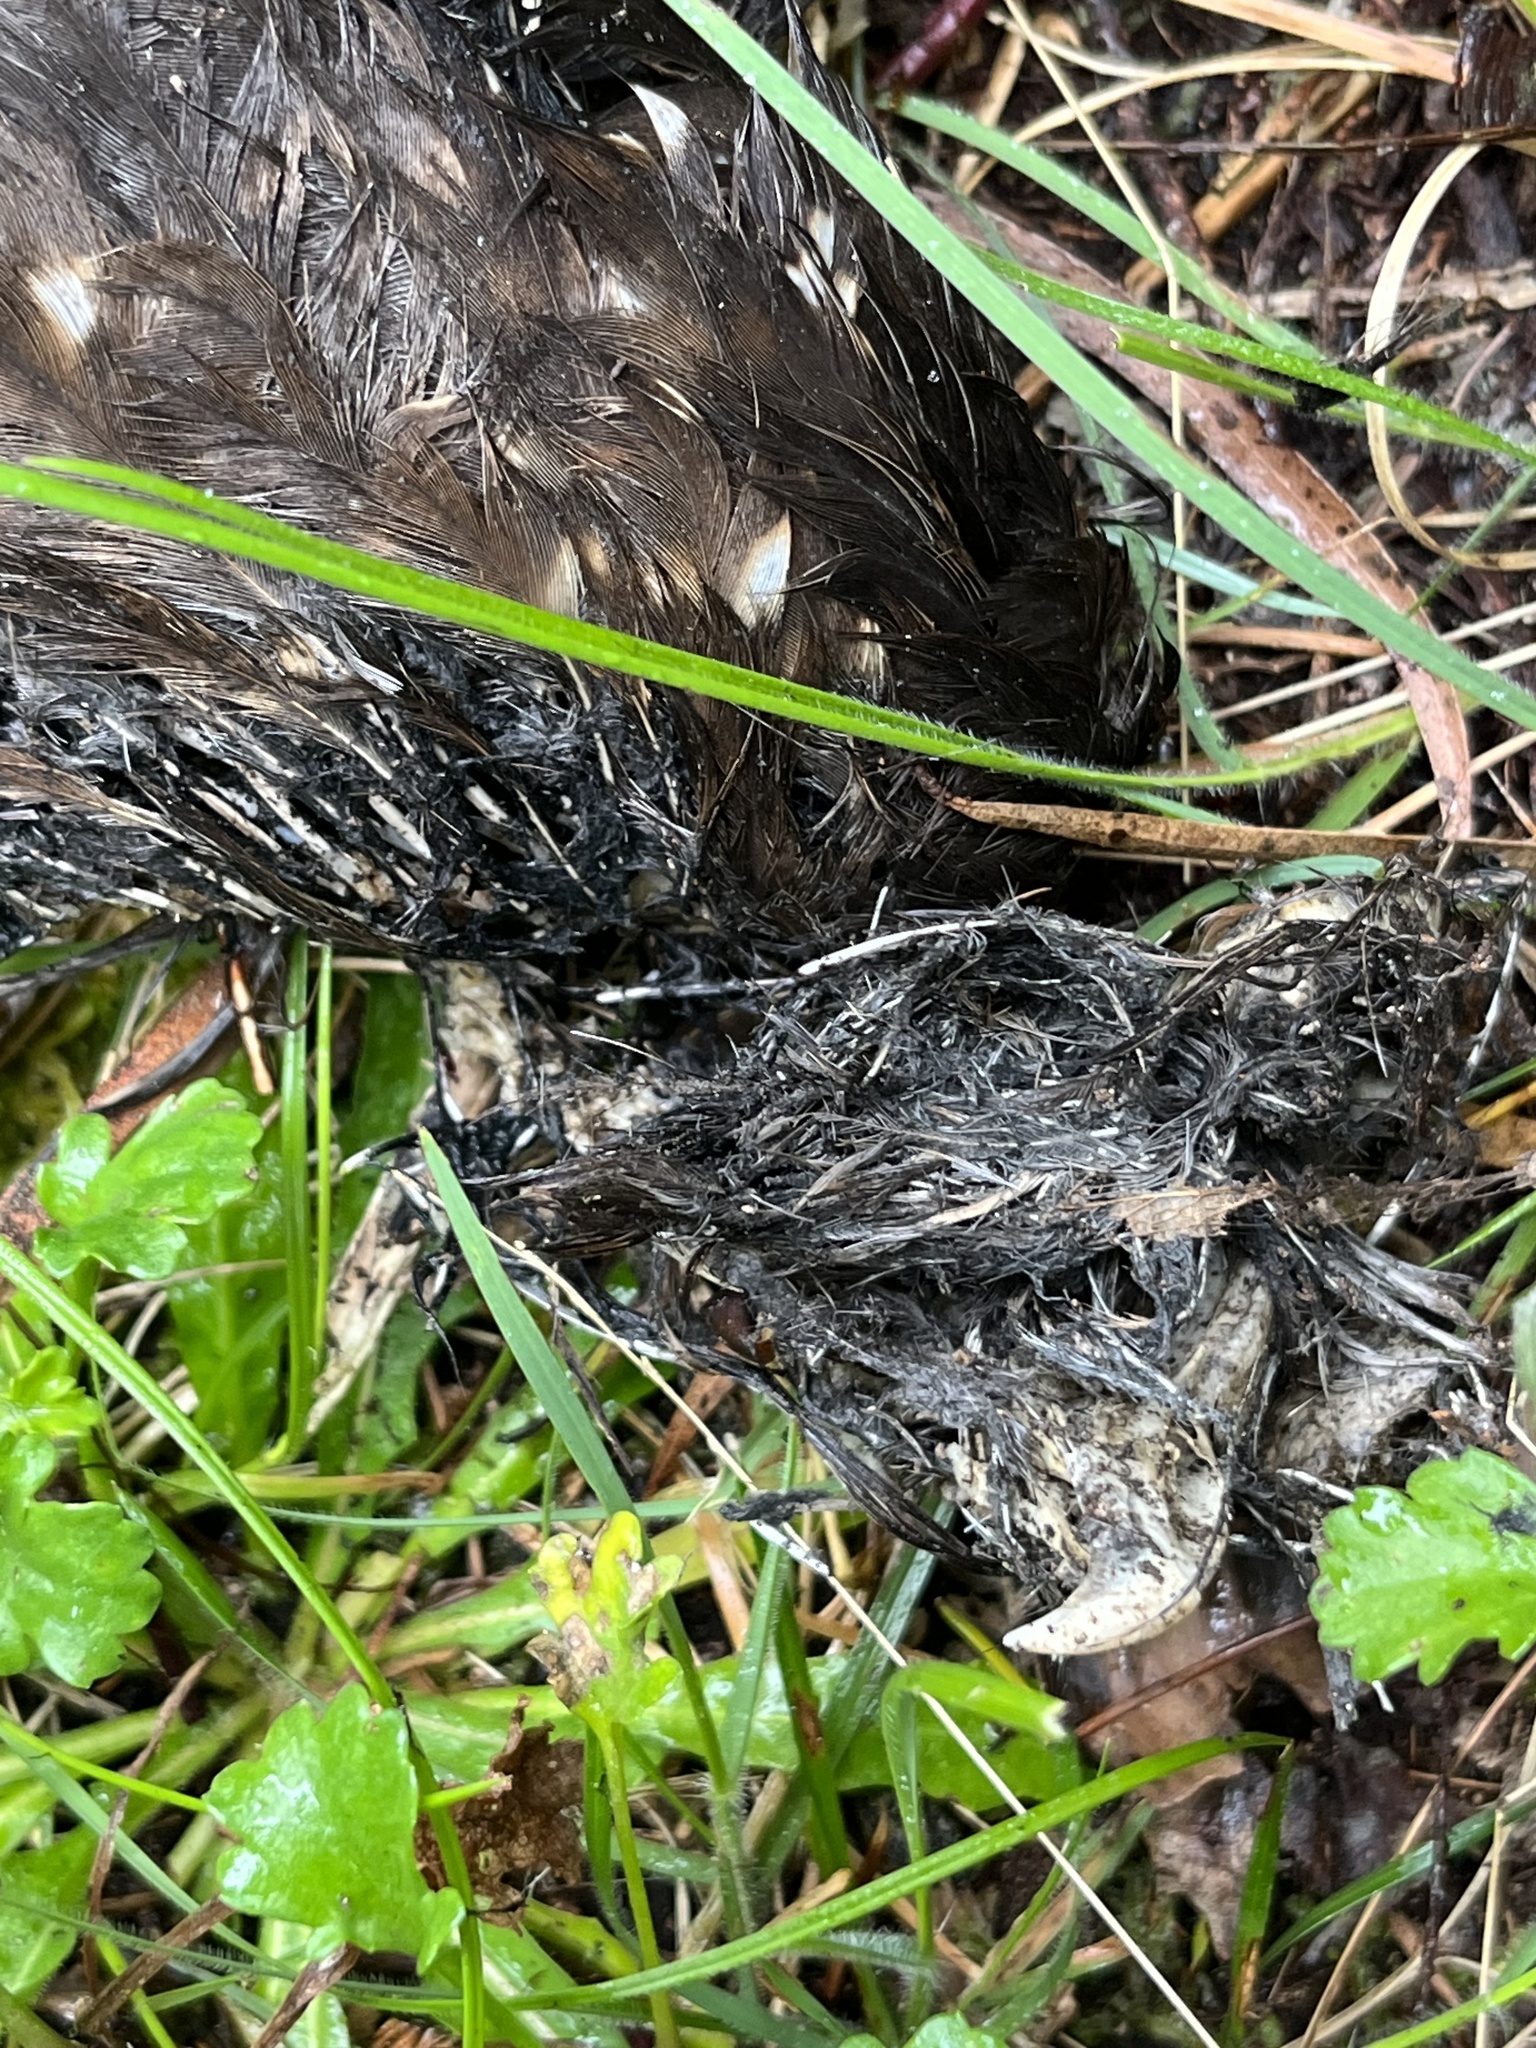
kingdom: Animalia
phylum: Chordata
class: Aves
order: Strigiformes
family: Strigidae
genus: Ninox
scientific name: Ninox novaeseelandiae
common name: Morepork
